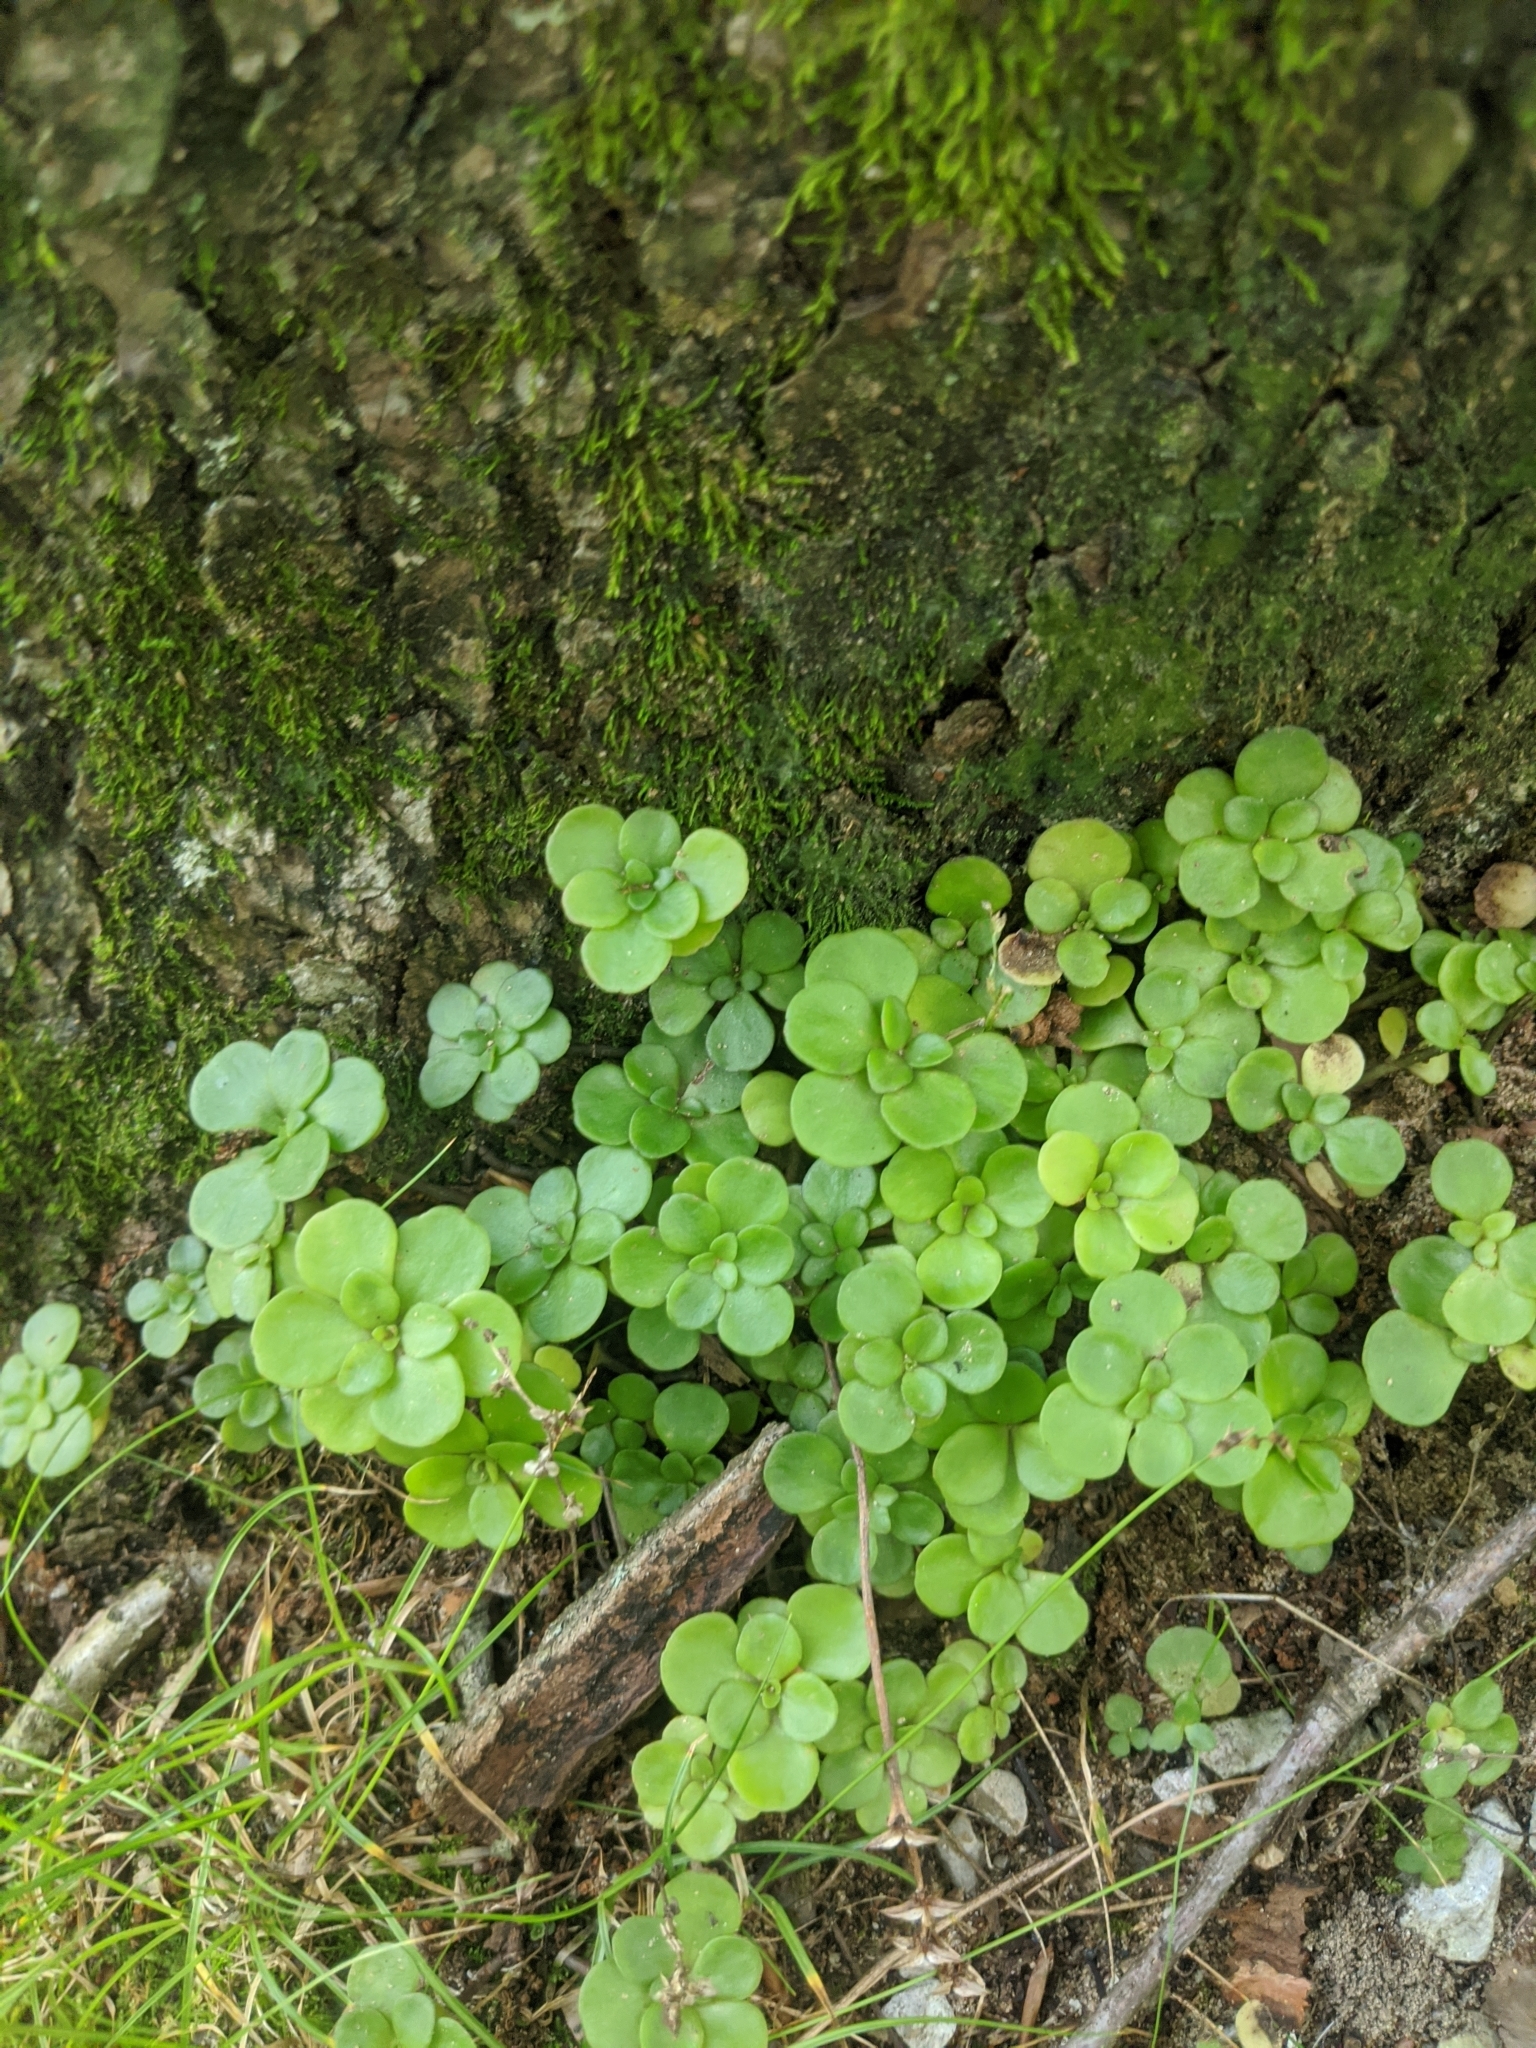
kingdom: Plantae
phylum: Tracheophyta
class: Magnoliopsida
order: Saxifragales
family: Crassulaceae
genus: Sedum
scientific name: Sedum ternatum
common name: Wild stonecrop
